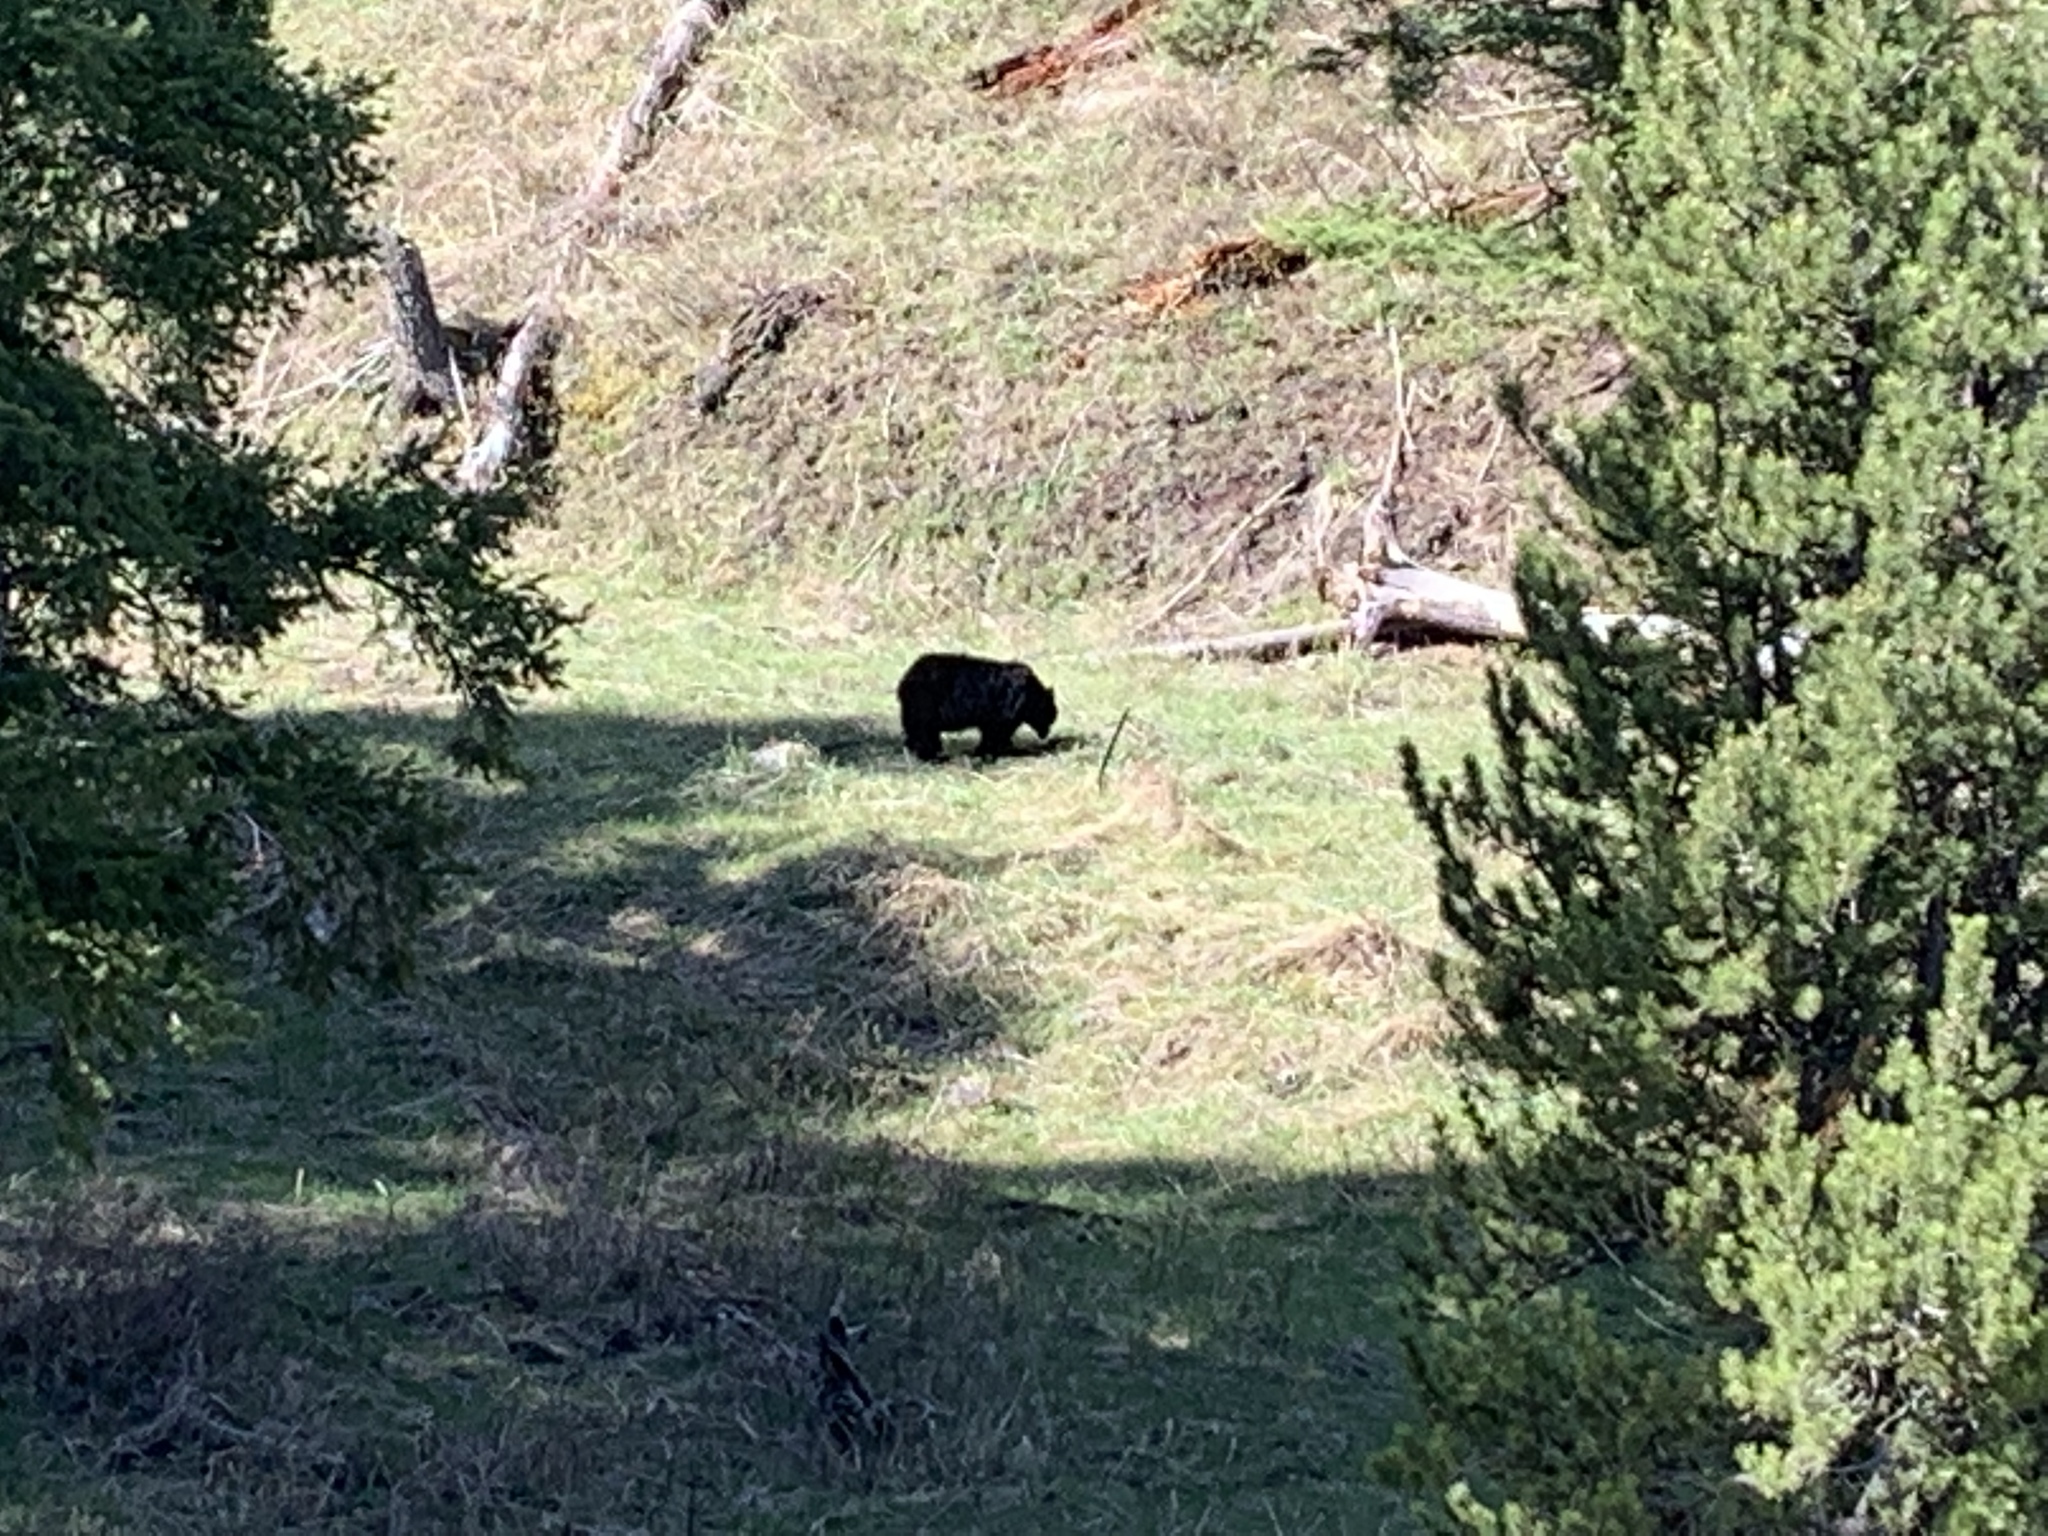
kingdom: Animalia
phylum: Chordata
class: Mammalia
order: Carnivora
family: Ursidae
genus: Ursus
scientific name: Ursus americanus
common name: American black bear
